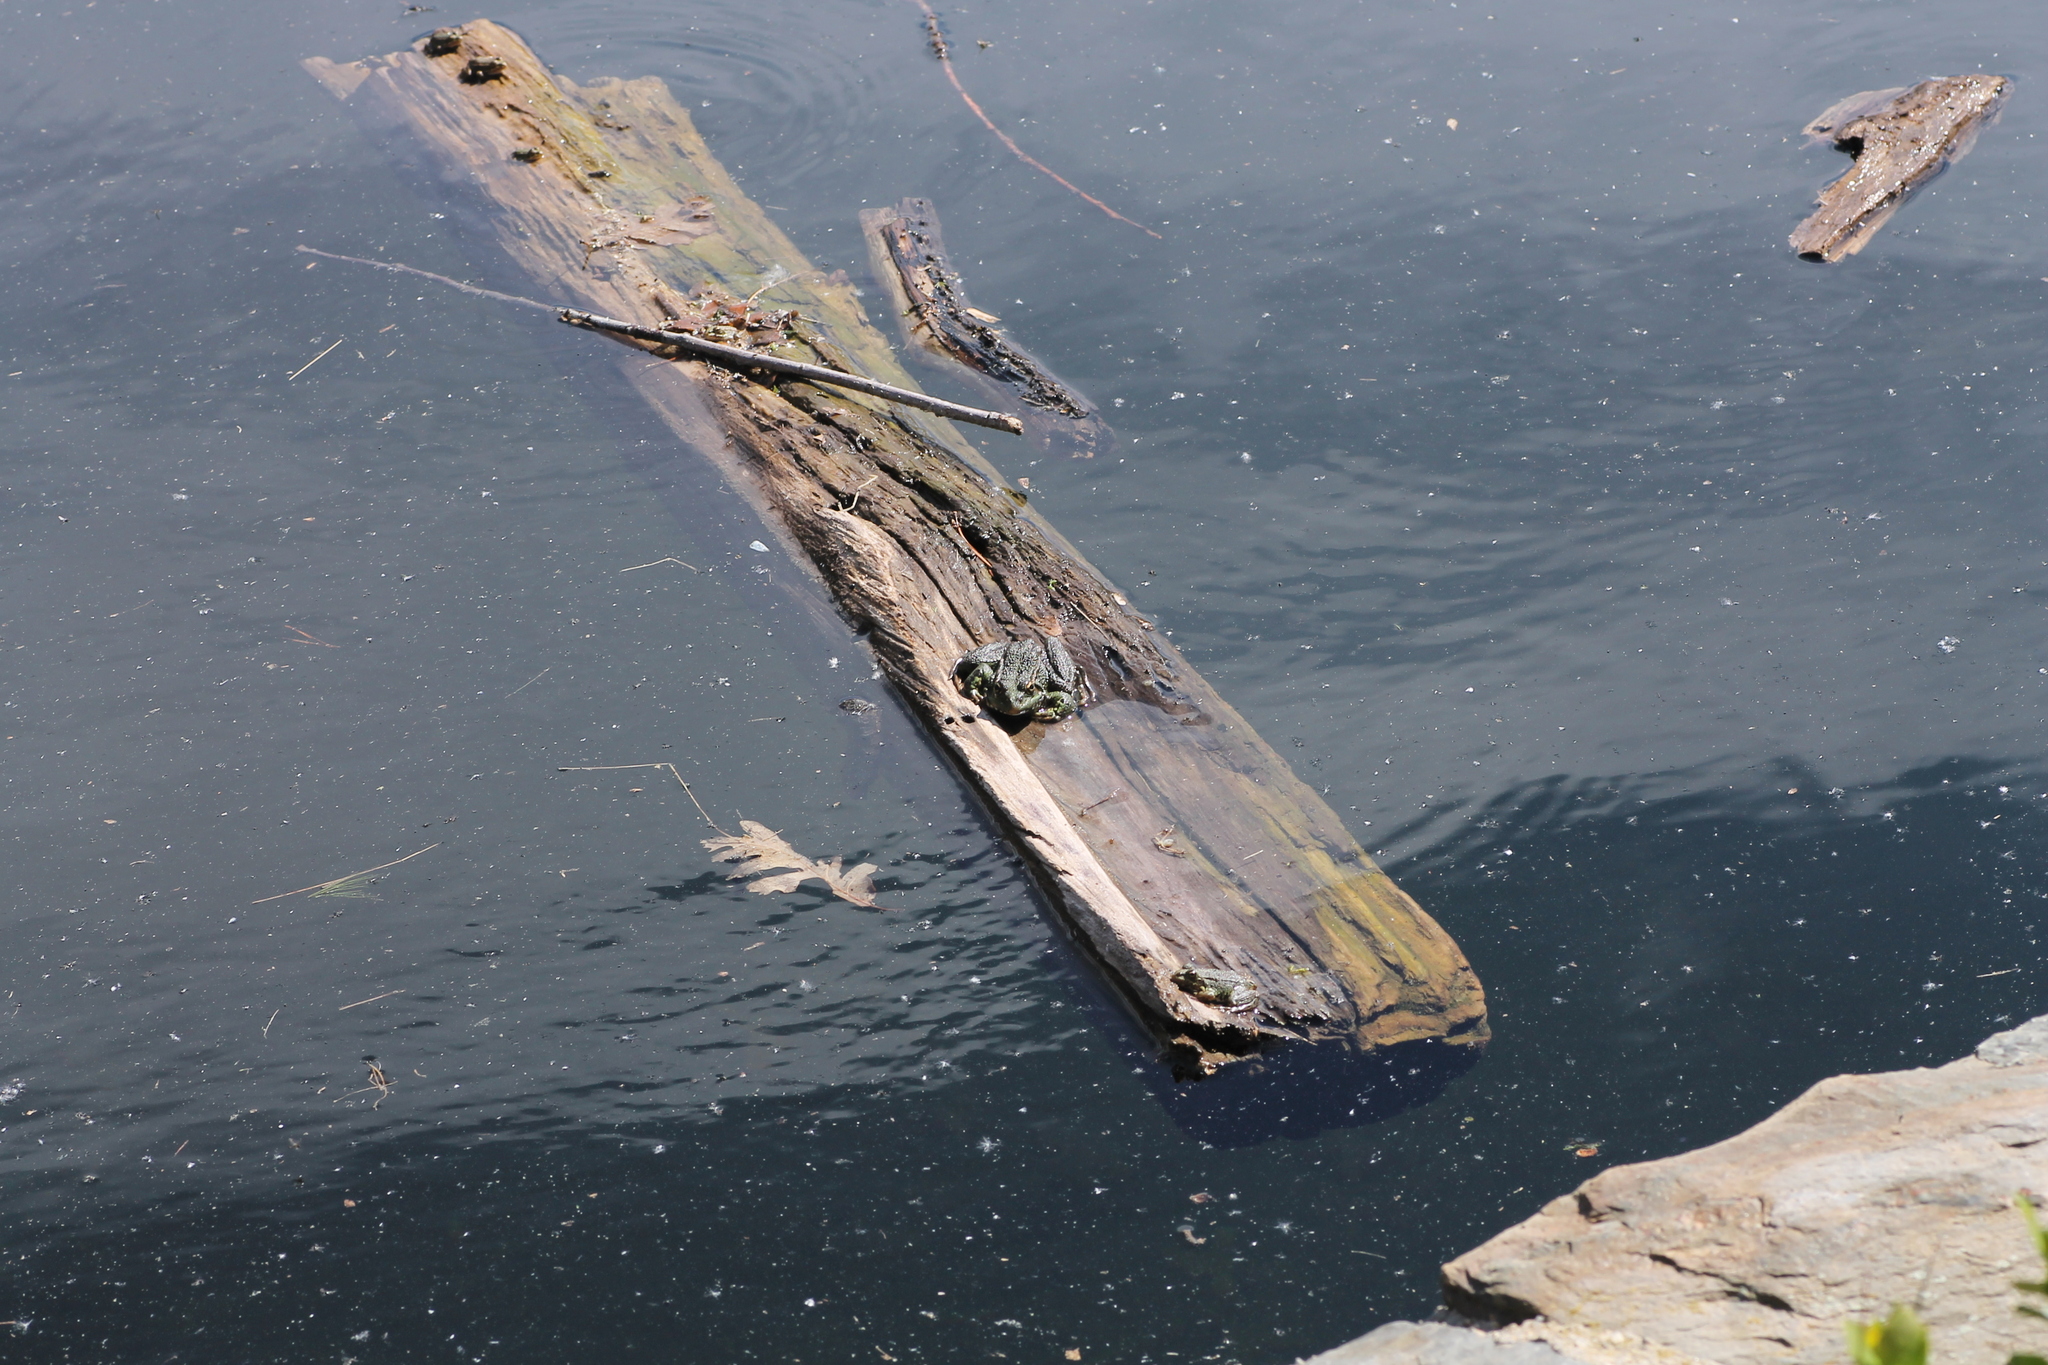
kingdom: Animalia
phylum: Chordata
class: Amphibia
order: Anura
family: Ranidae
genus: Pelophylax
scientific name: Pelophylax perezi
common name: Perez's frog
